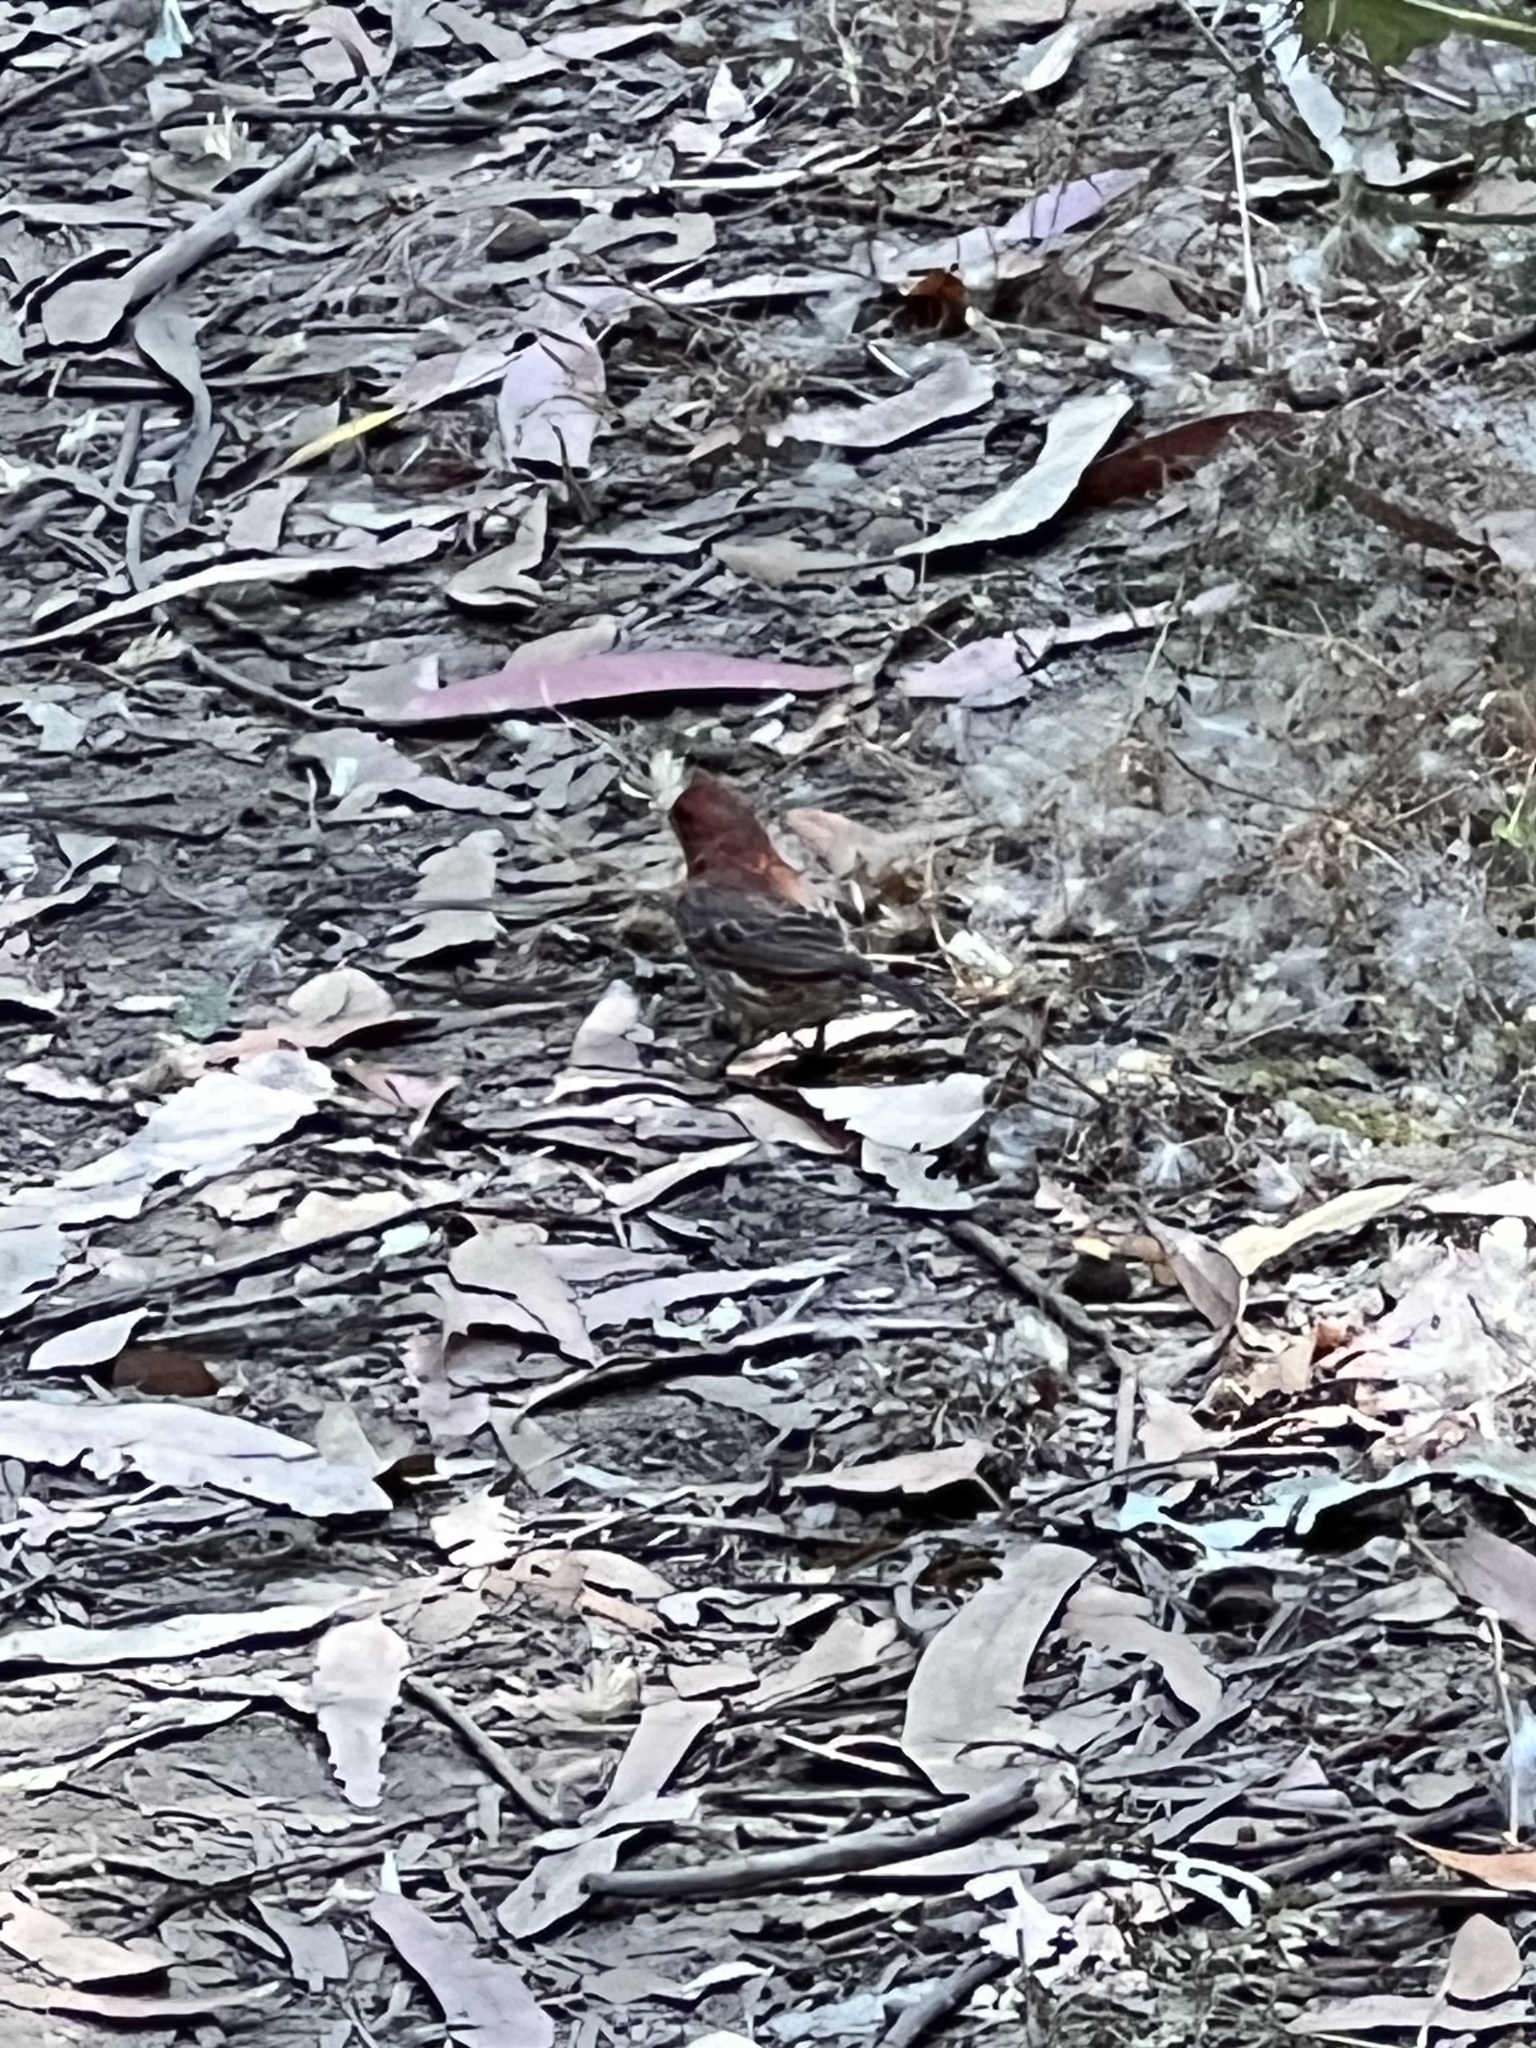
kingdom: Animalia
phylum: Chordata
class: Aves
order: Passeriformes
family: Fringillidae
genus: Haemorhous
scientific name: Haemorhous mexicanus
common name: House finch
